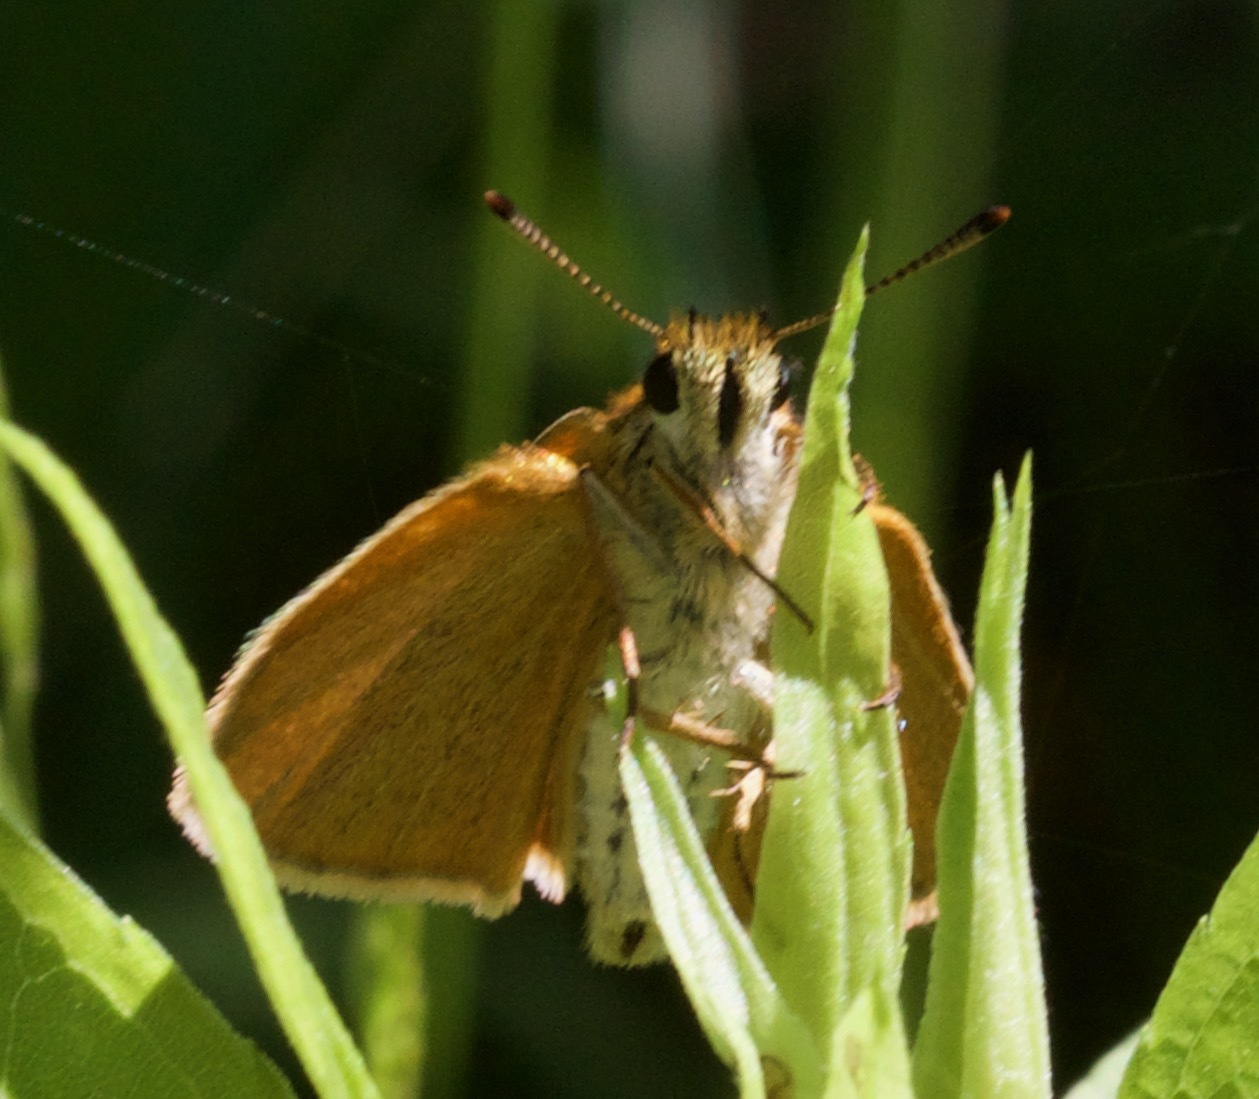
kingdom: Animalia
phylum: Arthropoda
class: Insecta
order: Lepidoptera
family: Hesperiidae
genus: Thymelicus
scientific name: Thymelicus lineola
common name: Essex skipper
